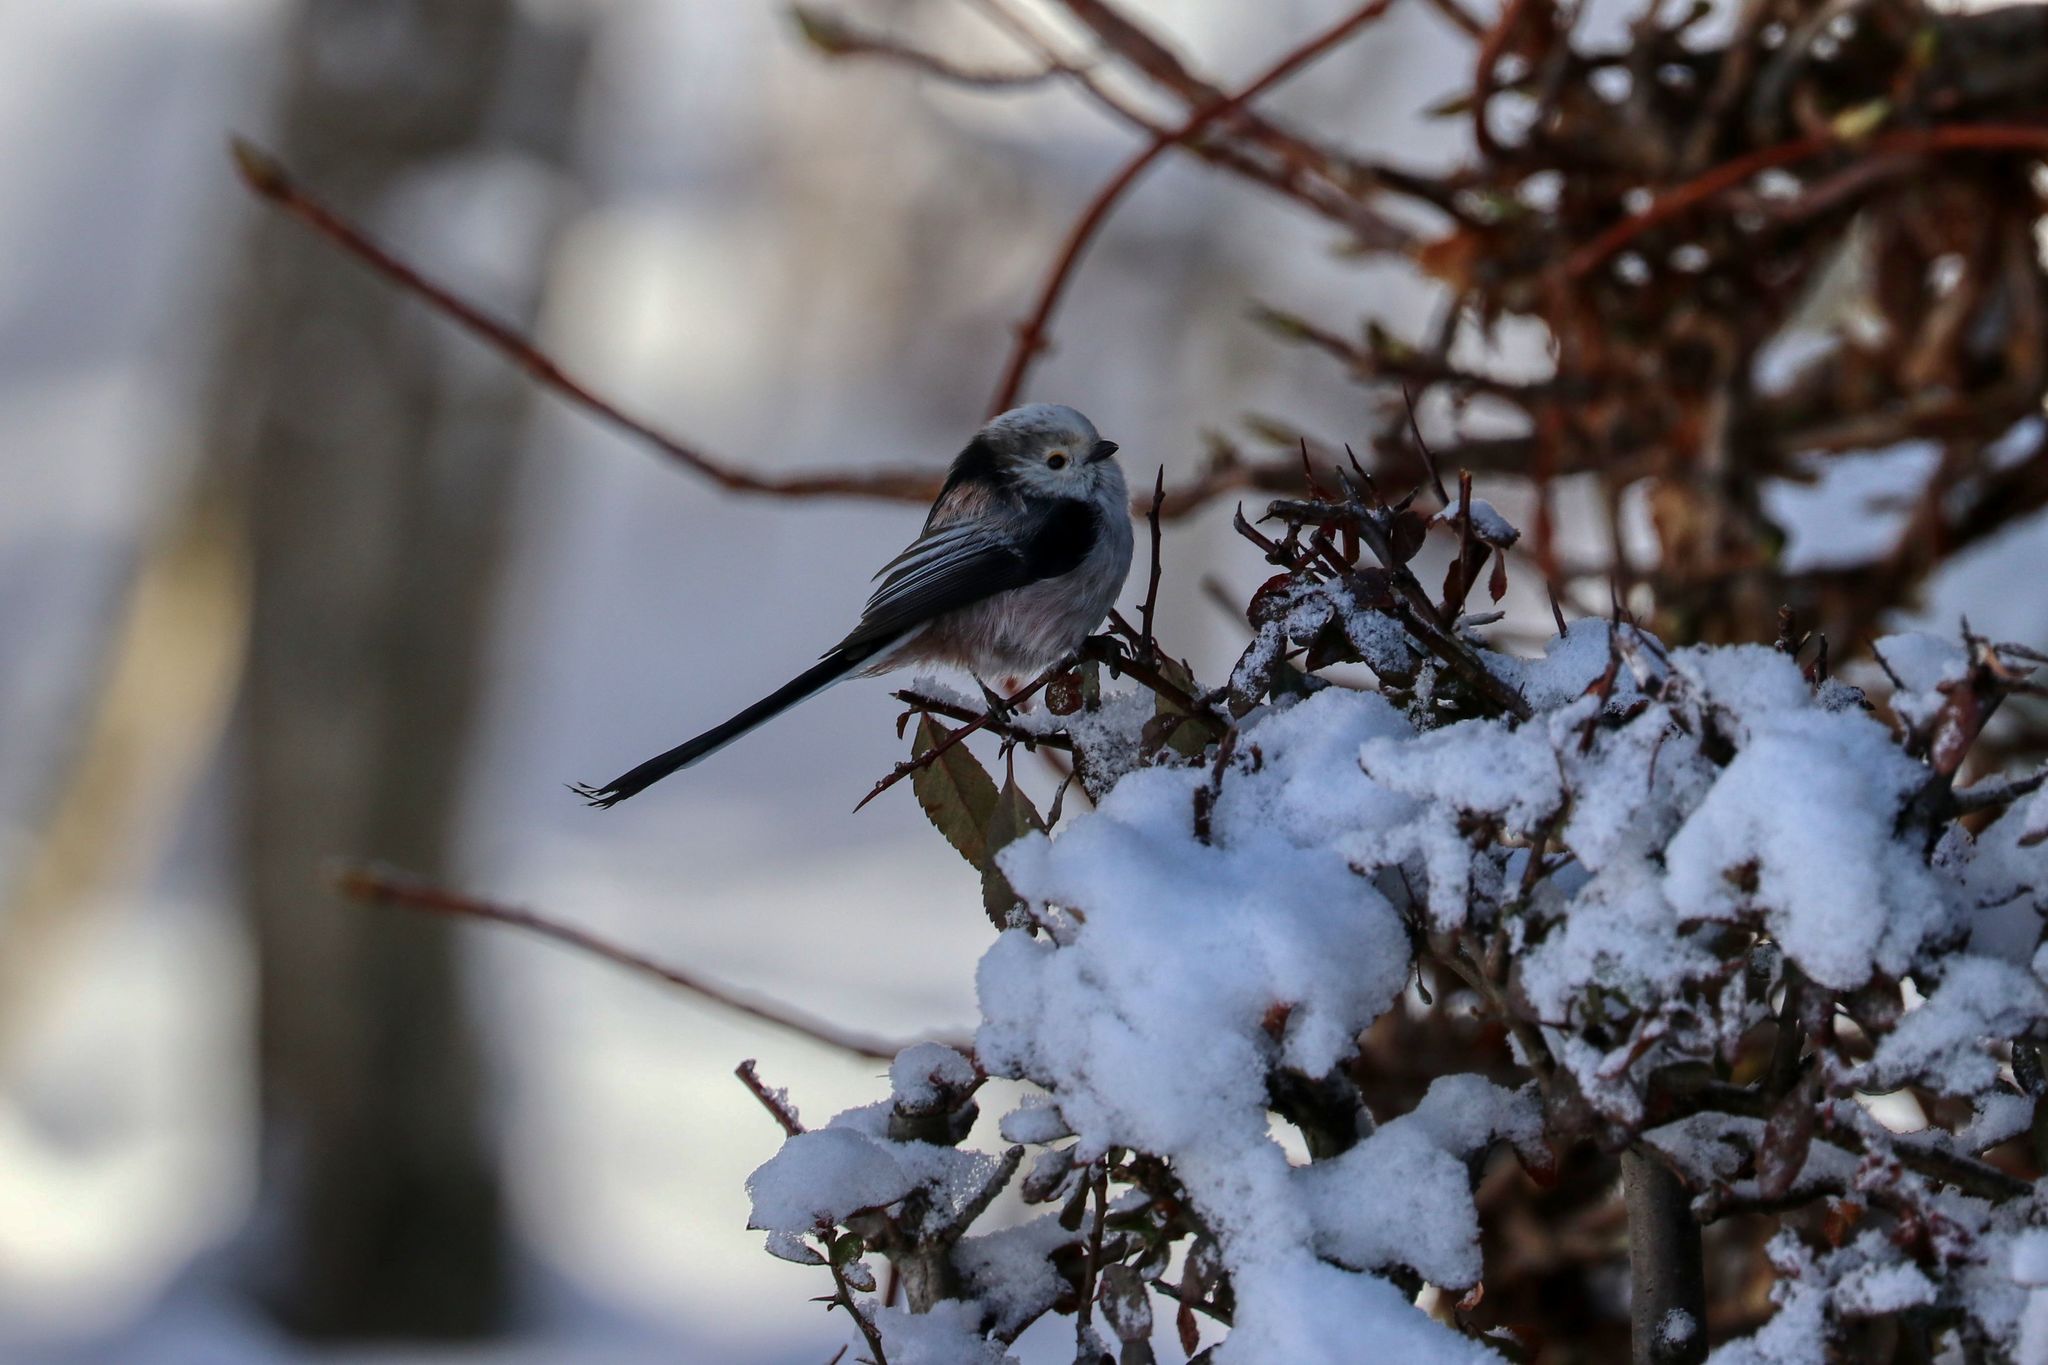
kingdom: Animalia
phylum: Chordata
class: Aves
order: Passeriformes
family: Aegithalidae
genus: Aegithalos
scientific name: Aegithalos caudatus
